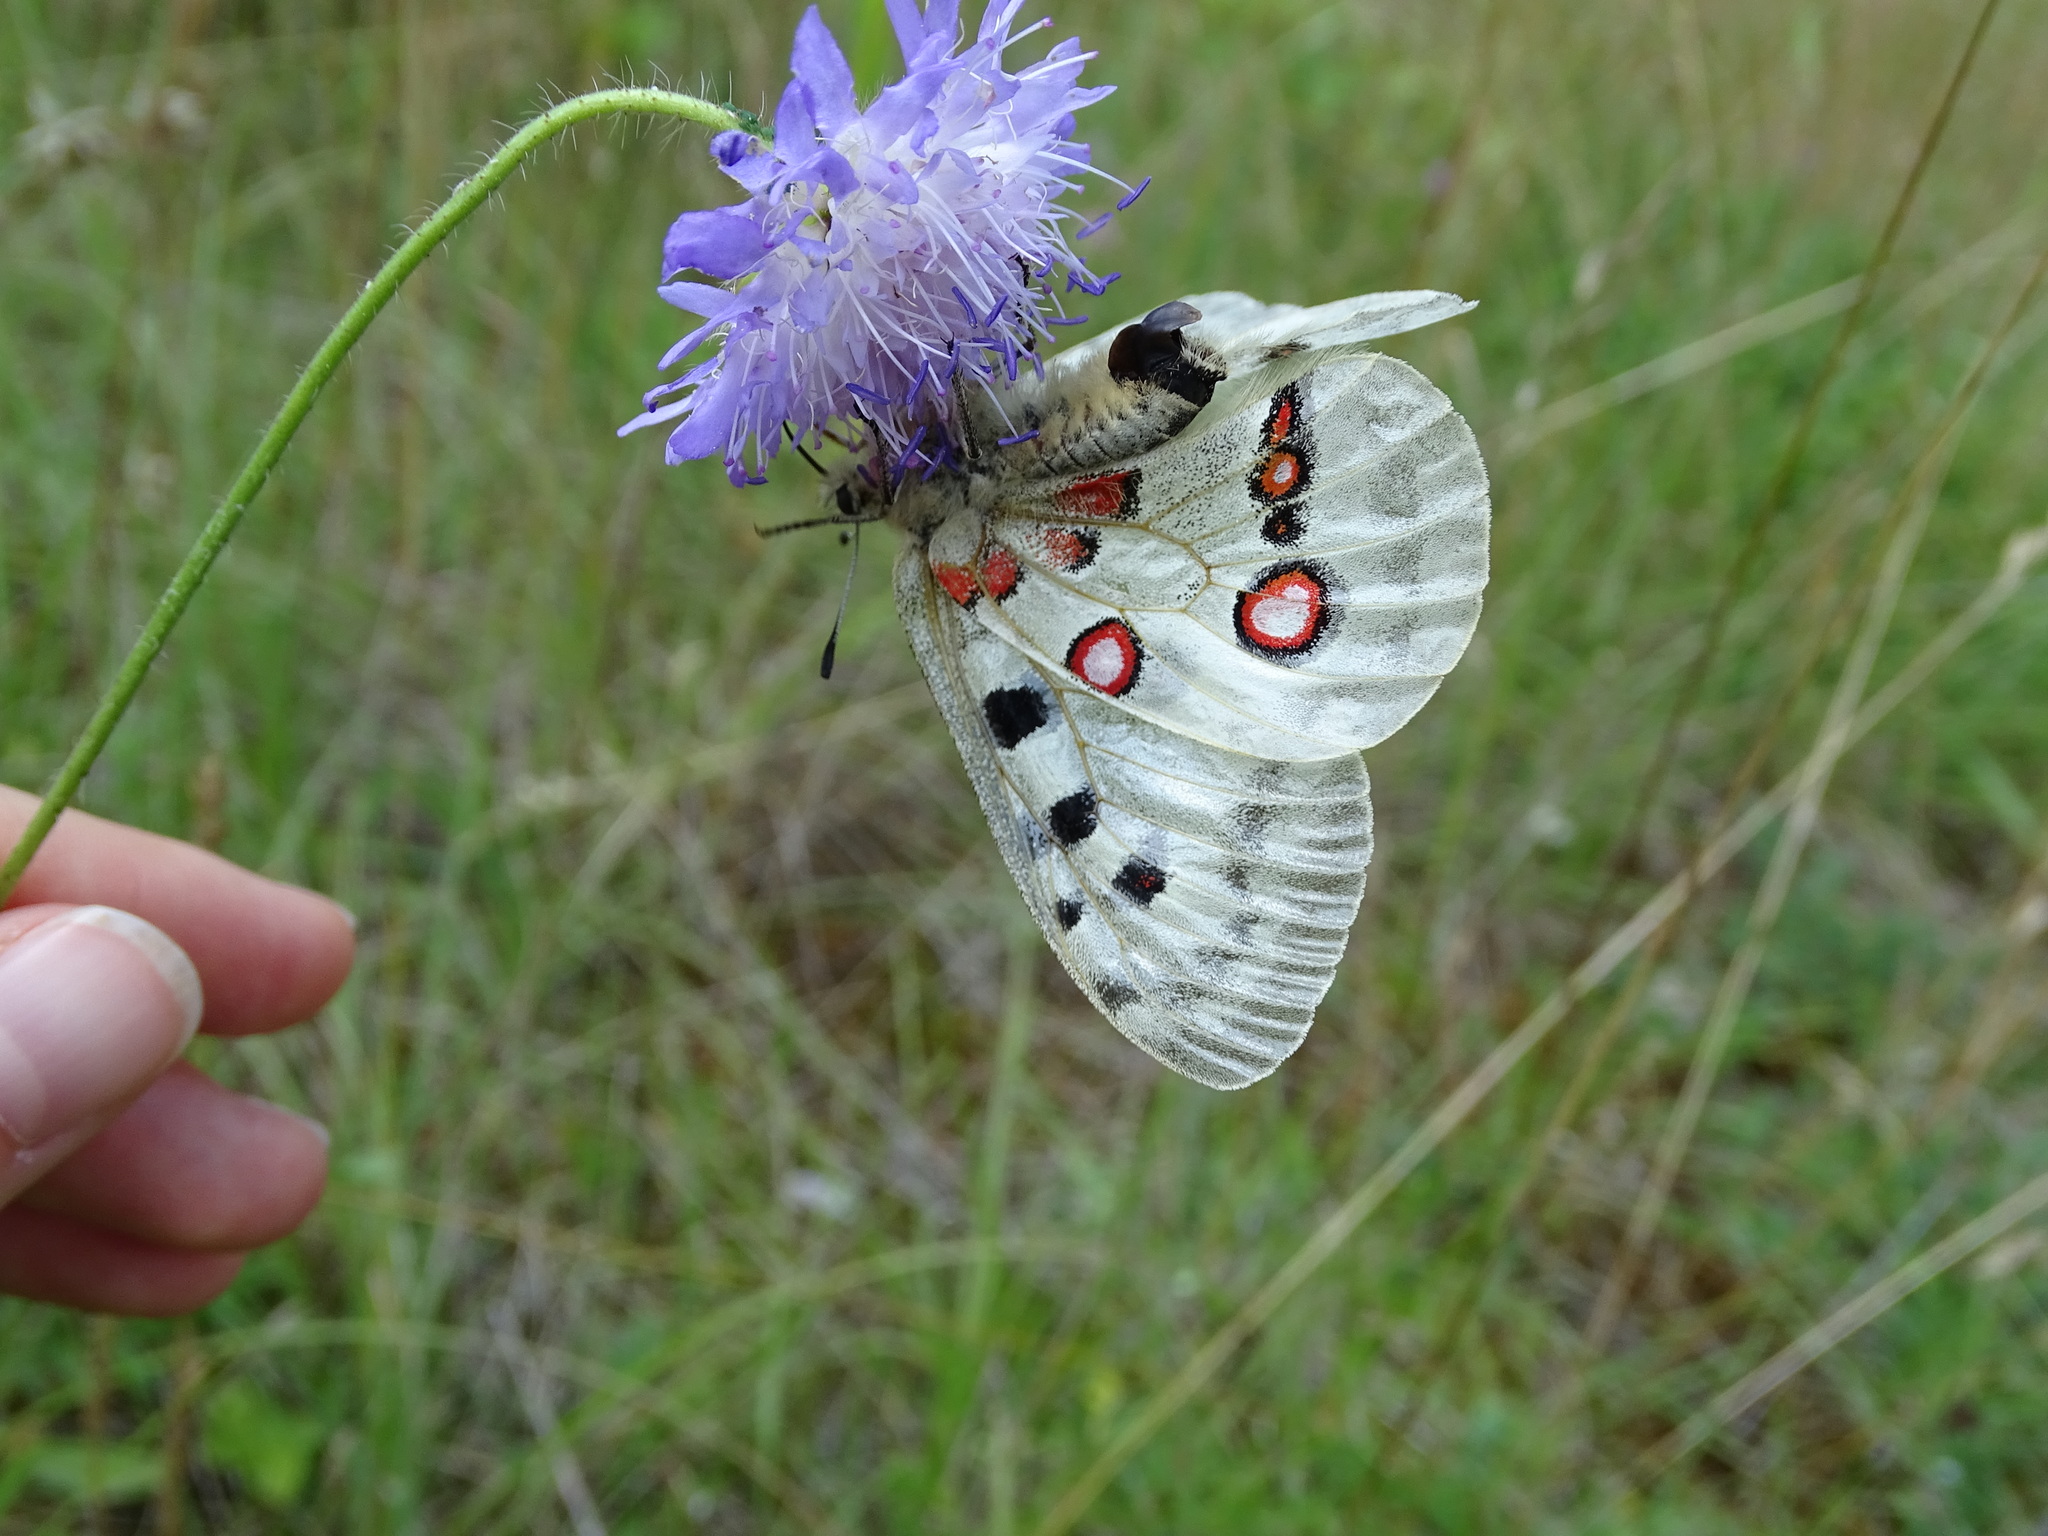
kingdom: Animalia
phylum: Arthropoda
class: Insecta
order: Lepidoptera
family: Papilionidae
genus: Parnassius
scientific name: Parnassius apollo
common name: Apollo
